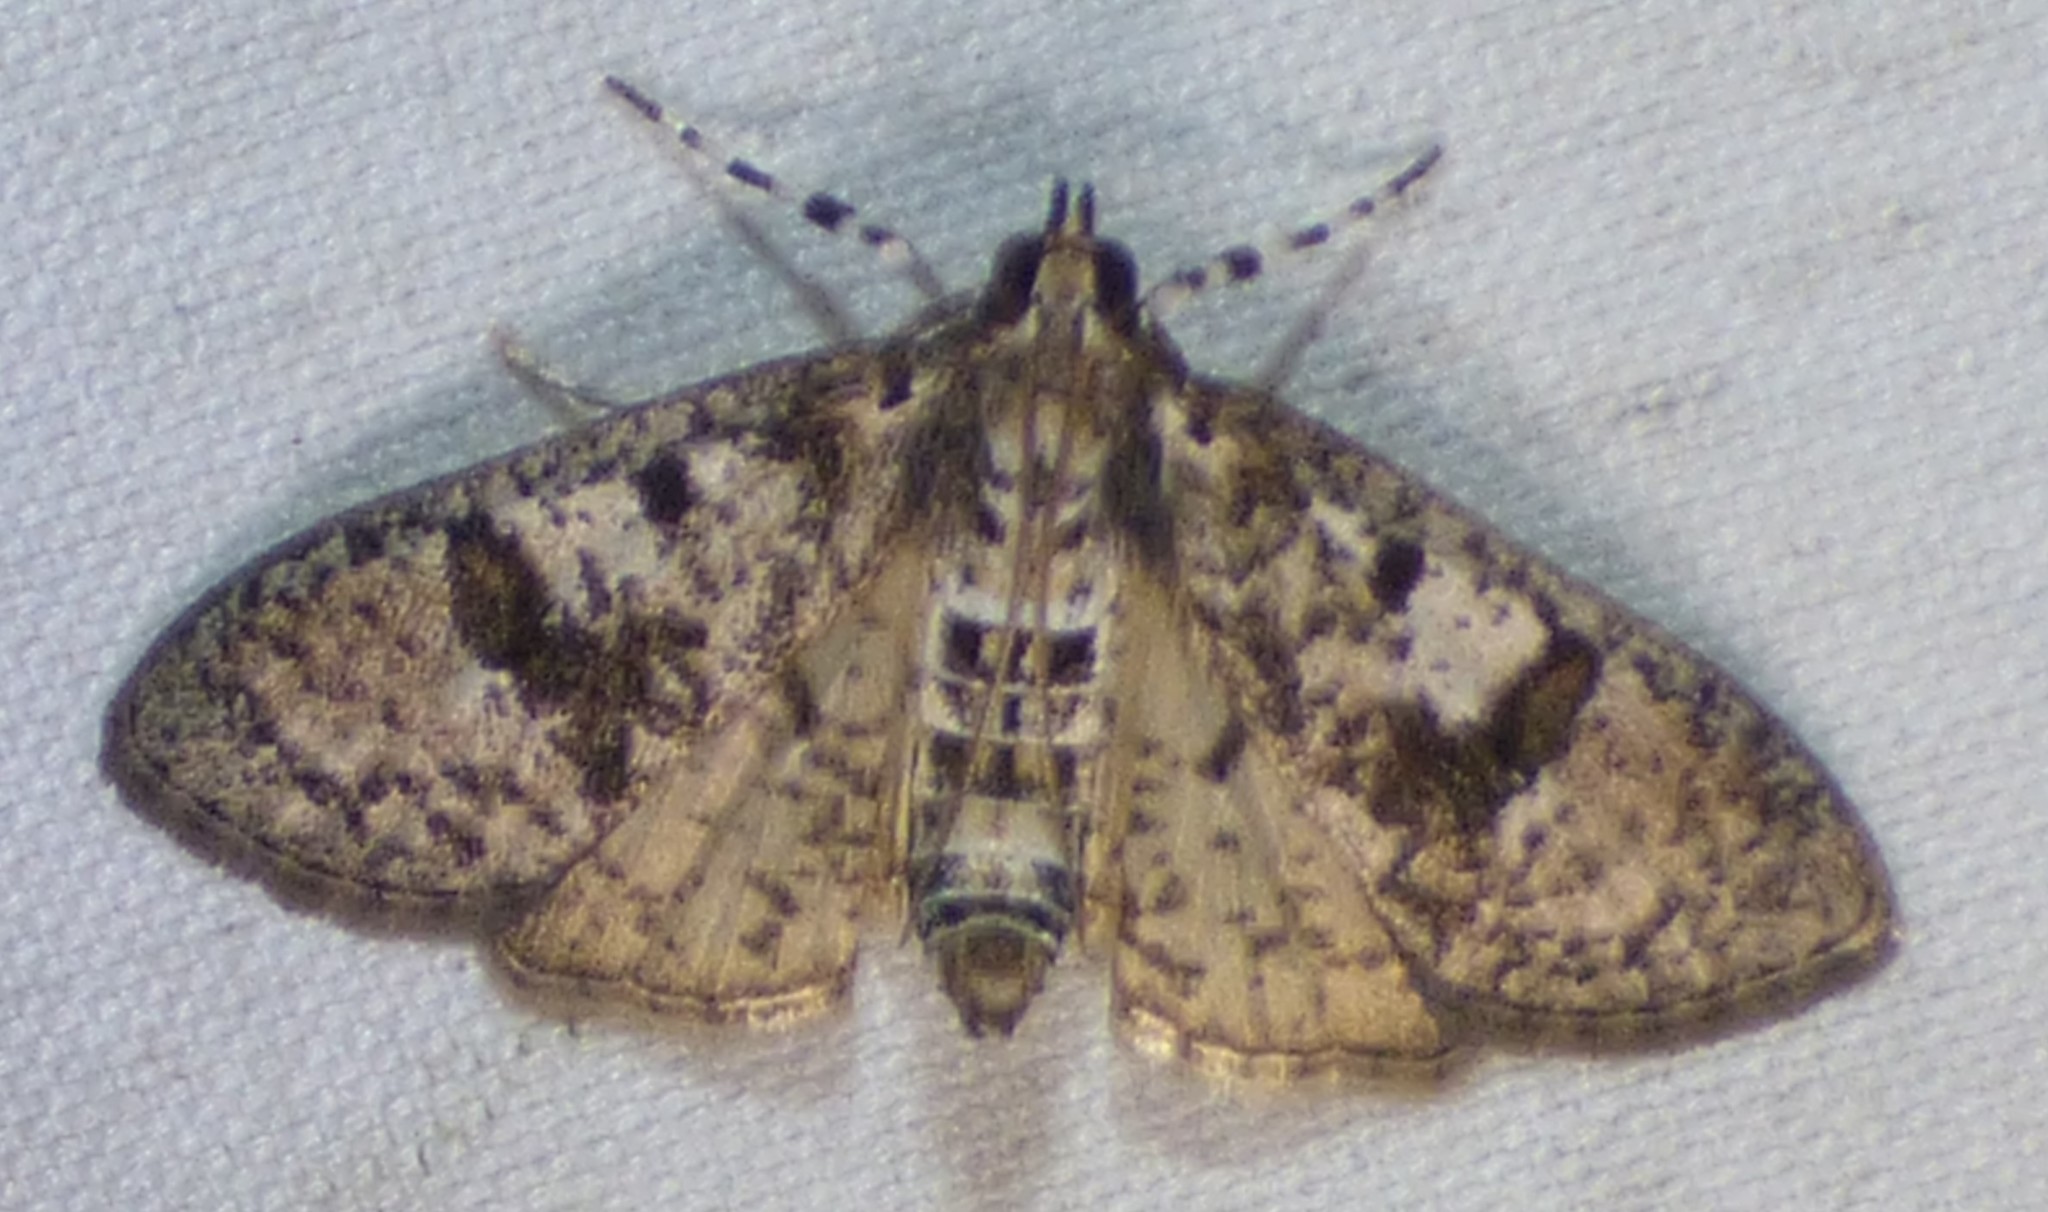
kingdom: Animalia
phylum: Arthropoda
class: Insecta
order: Lepidoptera
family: Crambidae
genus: Palpita
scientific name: Palpita magniferalis
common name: Splendid palpita moth
